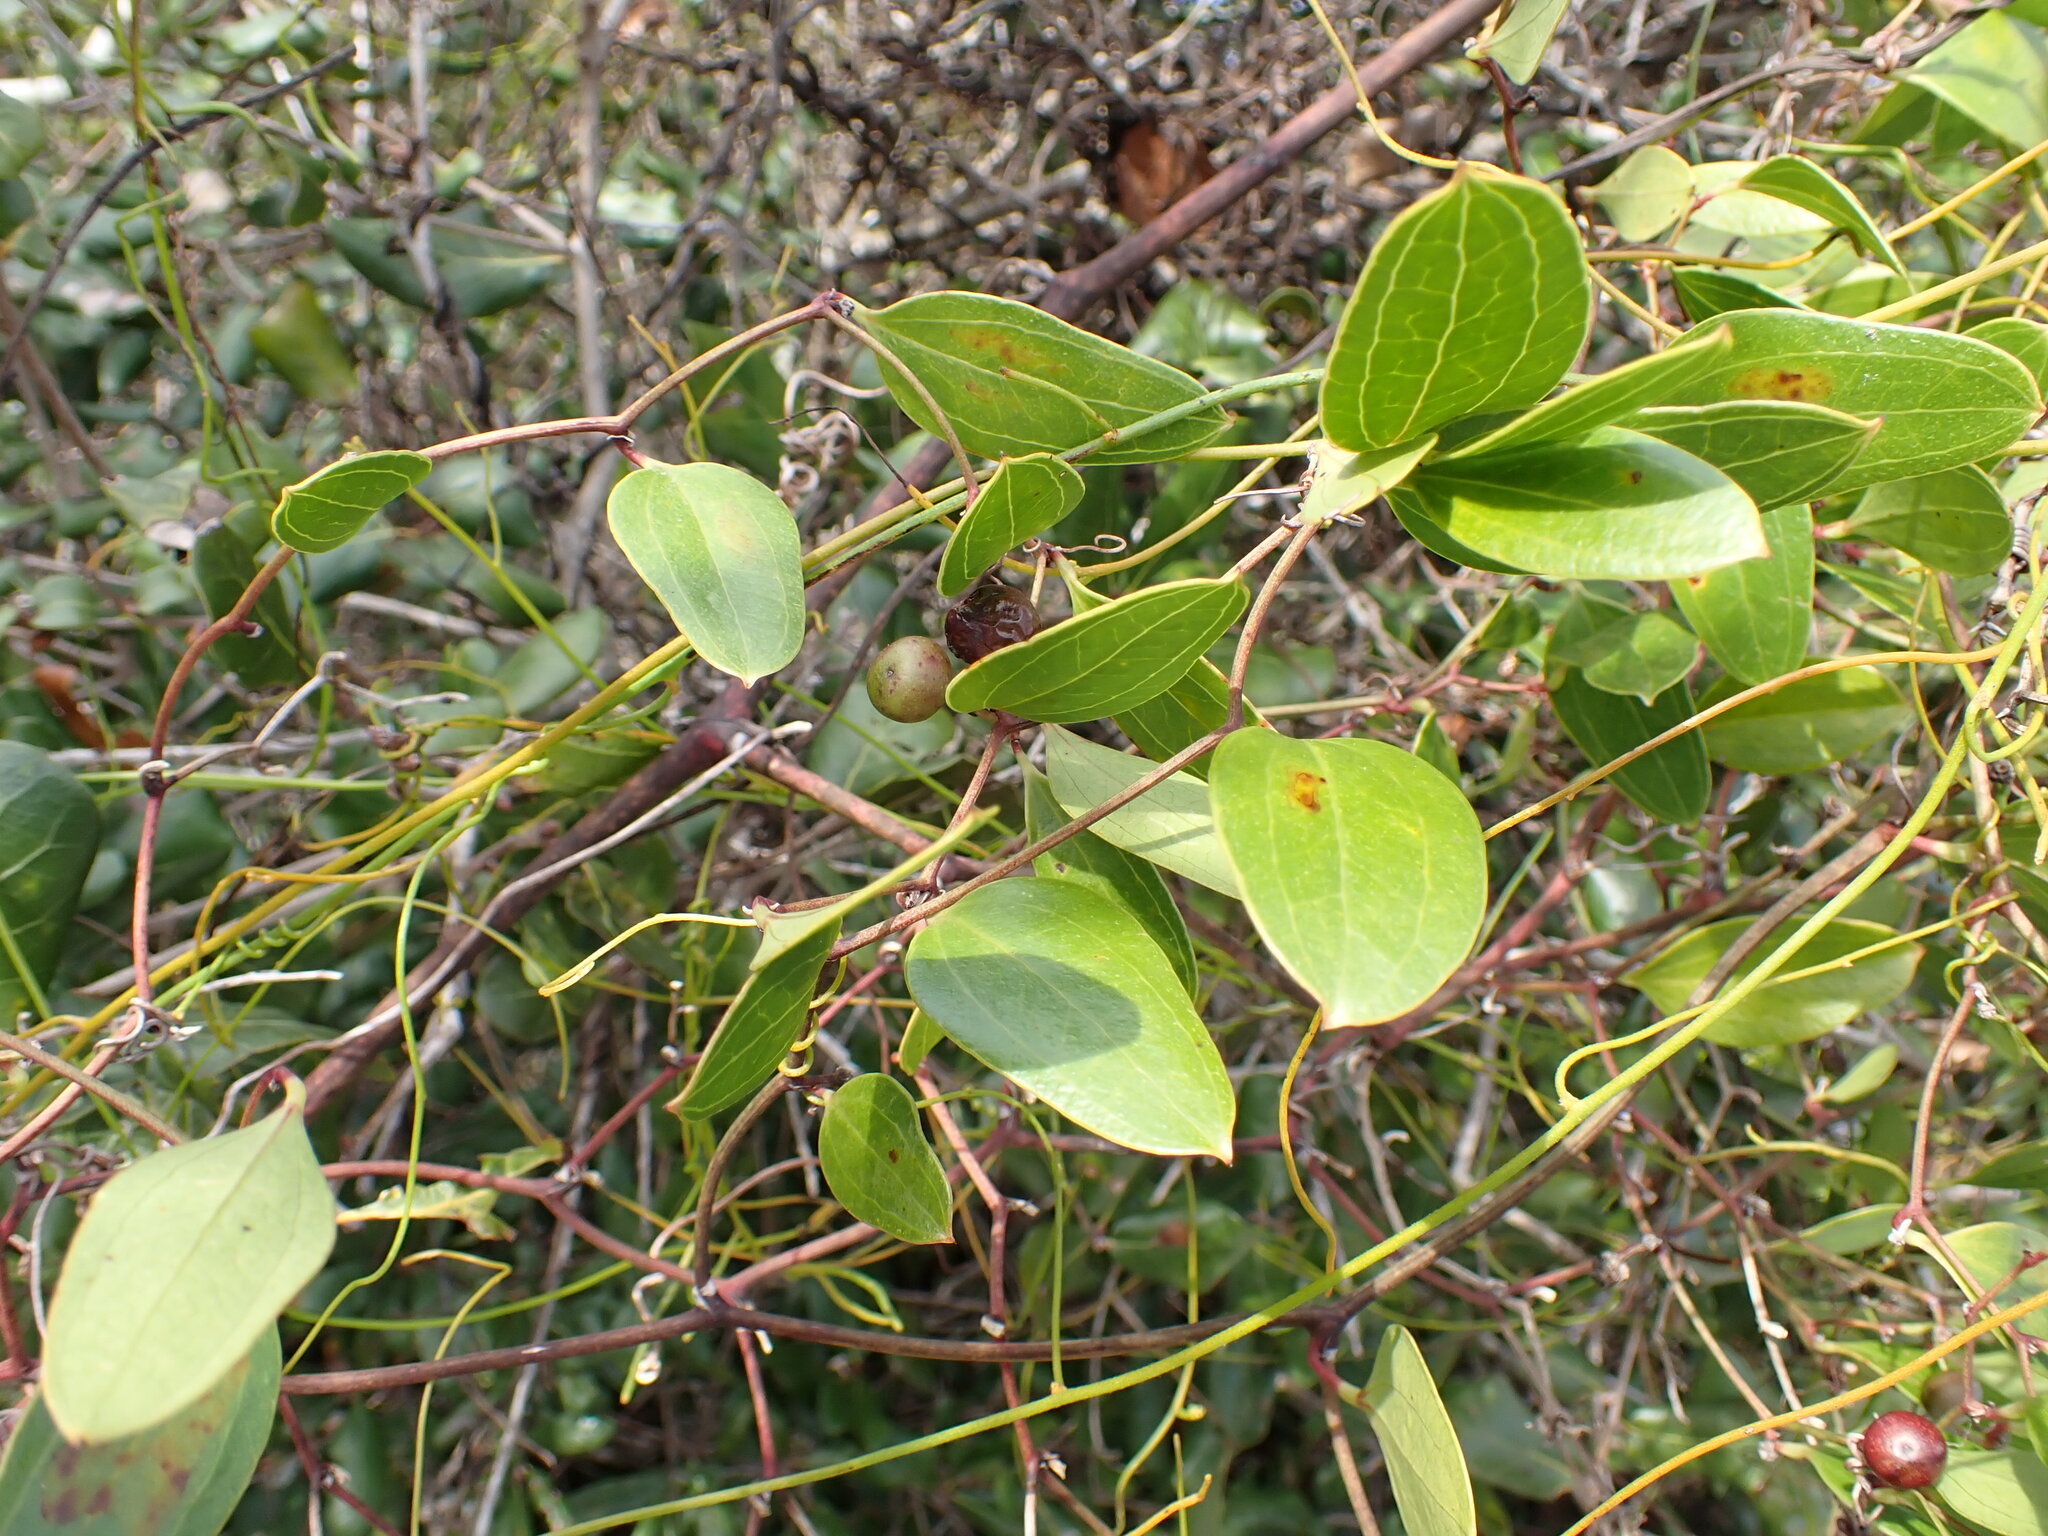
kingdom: Plantae
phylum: Tracheophyta
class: Liliopsida
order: Liliales
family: Smilacaceae
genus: Smilax
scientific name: Smilax auriculata
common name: Wild bamboo
